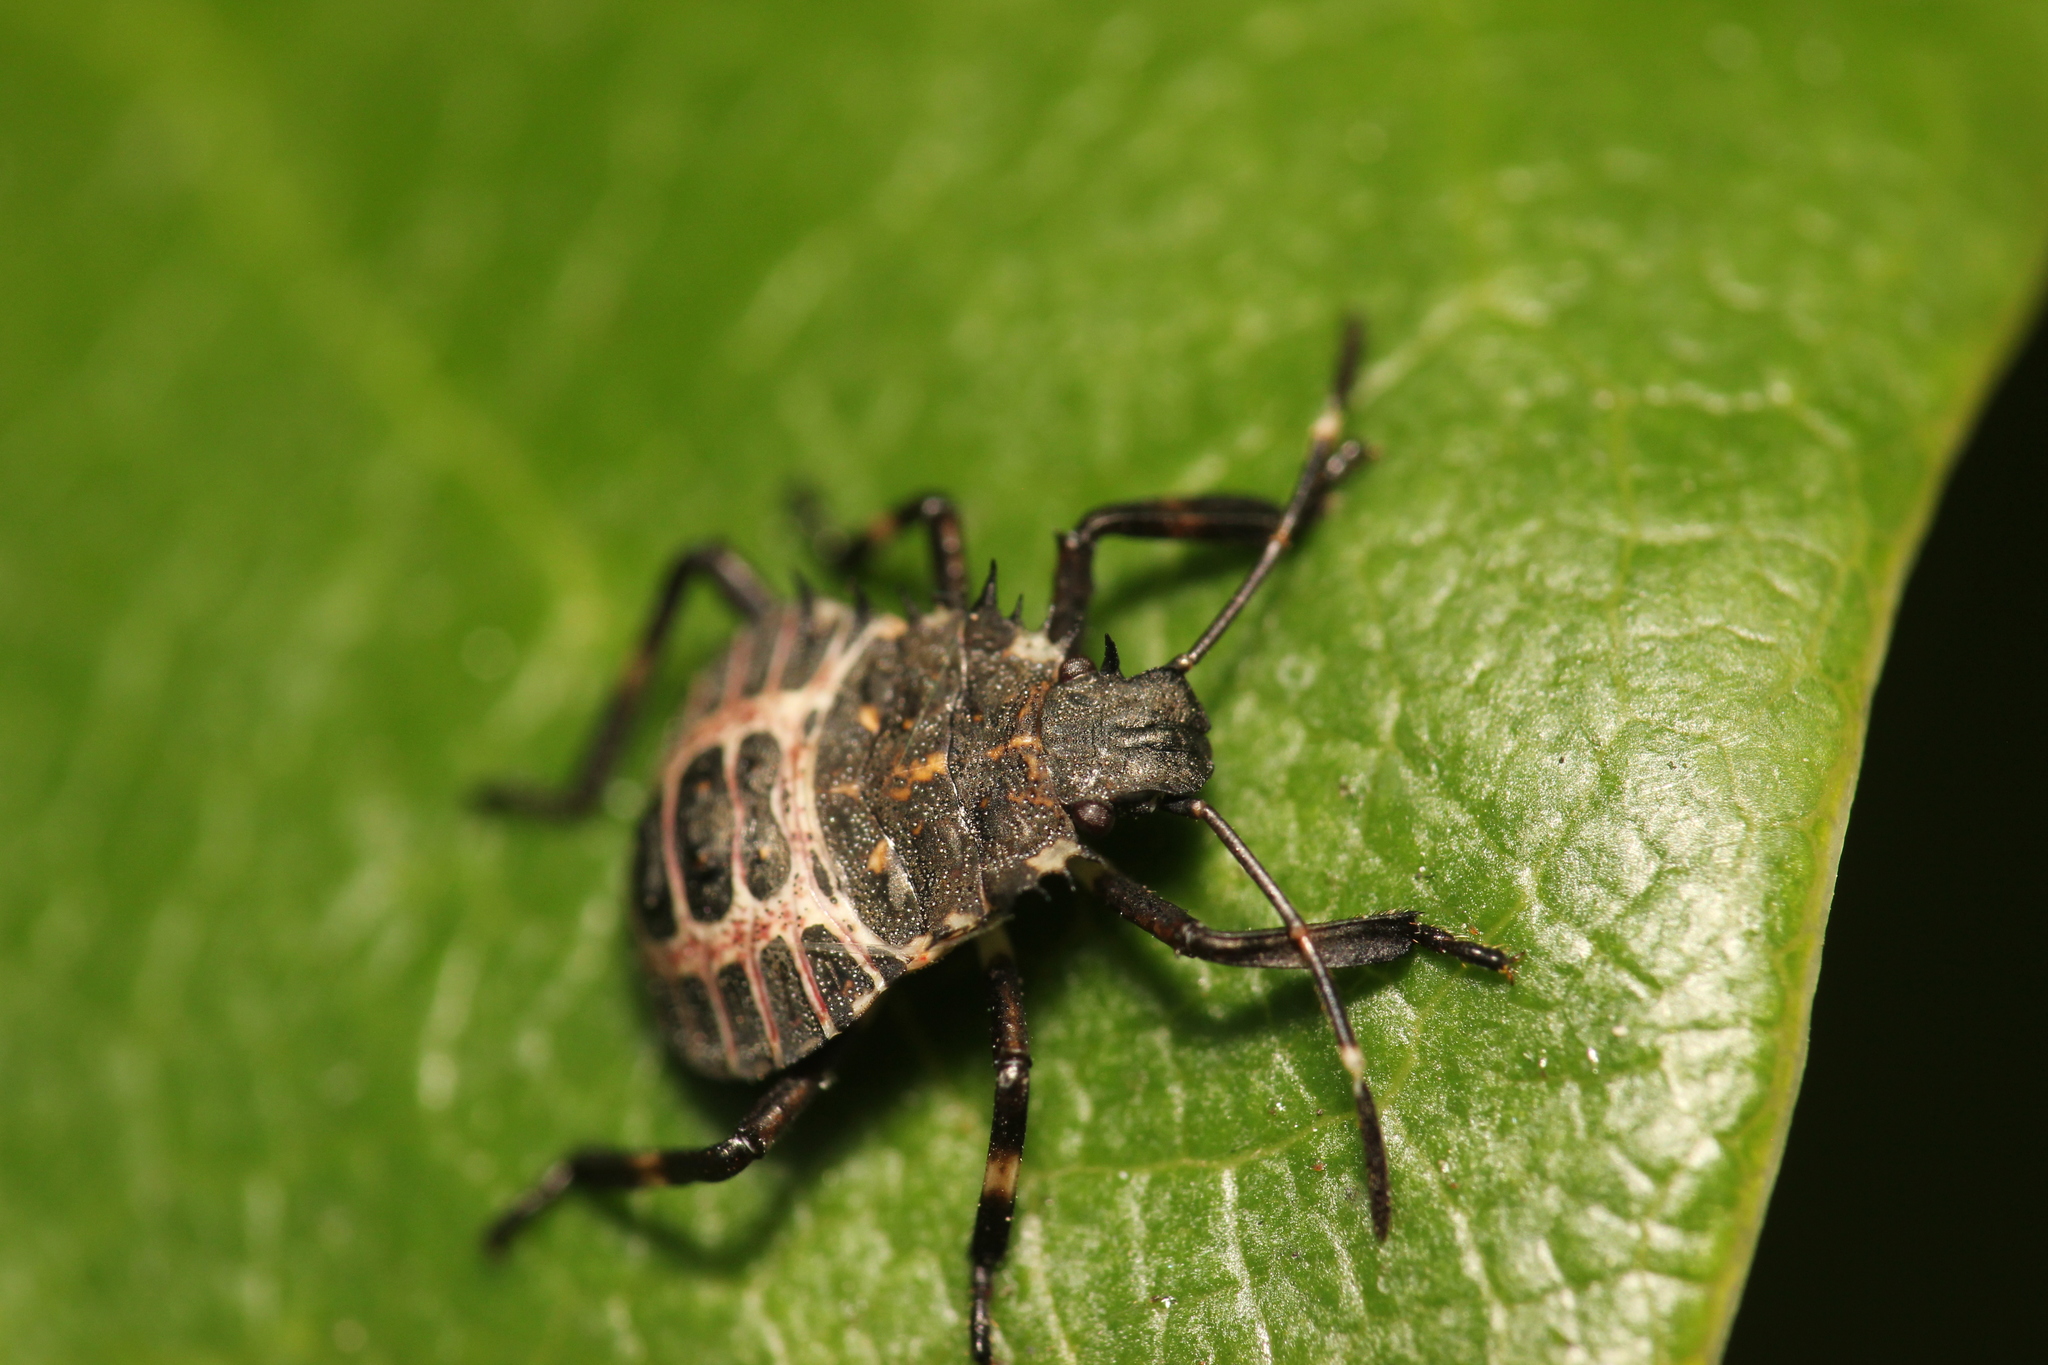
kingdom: Animalia
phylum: Arthropoda
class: Insecta
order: Hemiptera
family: Pentatomidae
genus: Halyomorpha
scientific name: Halyomorpha halys
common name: Brown marmorated stink bug
